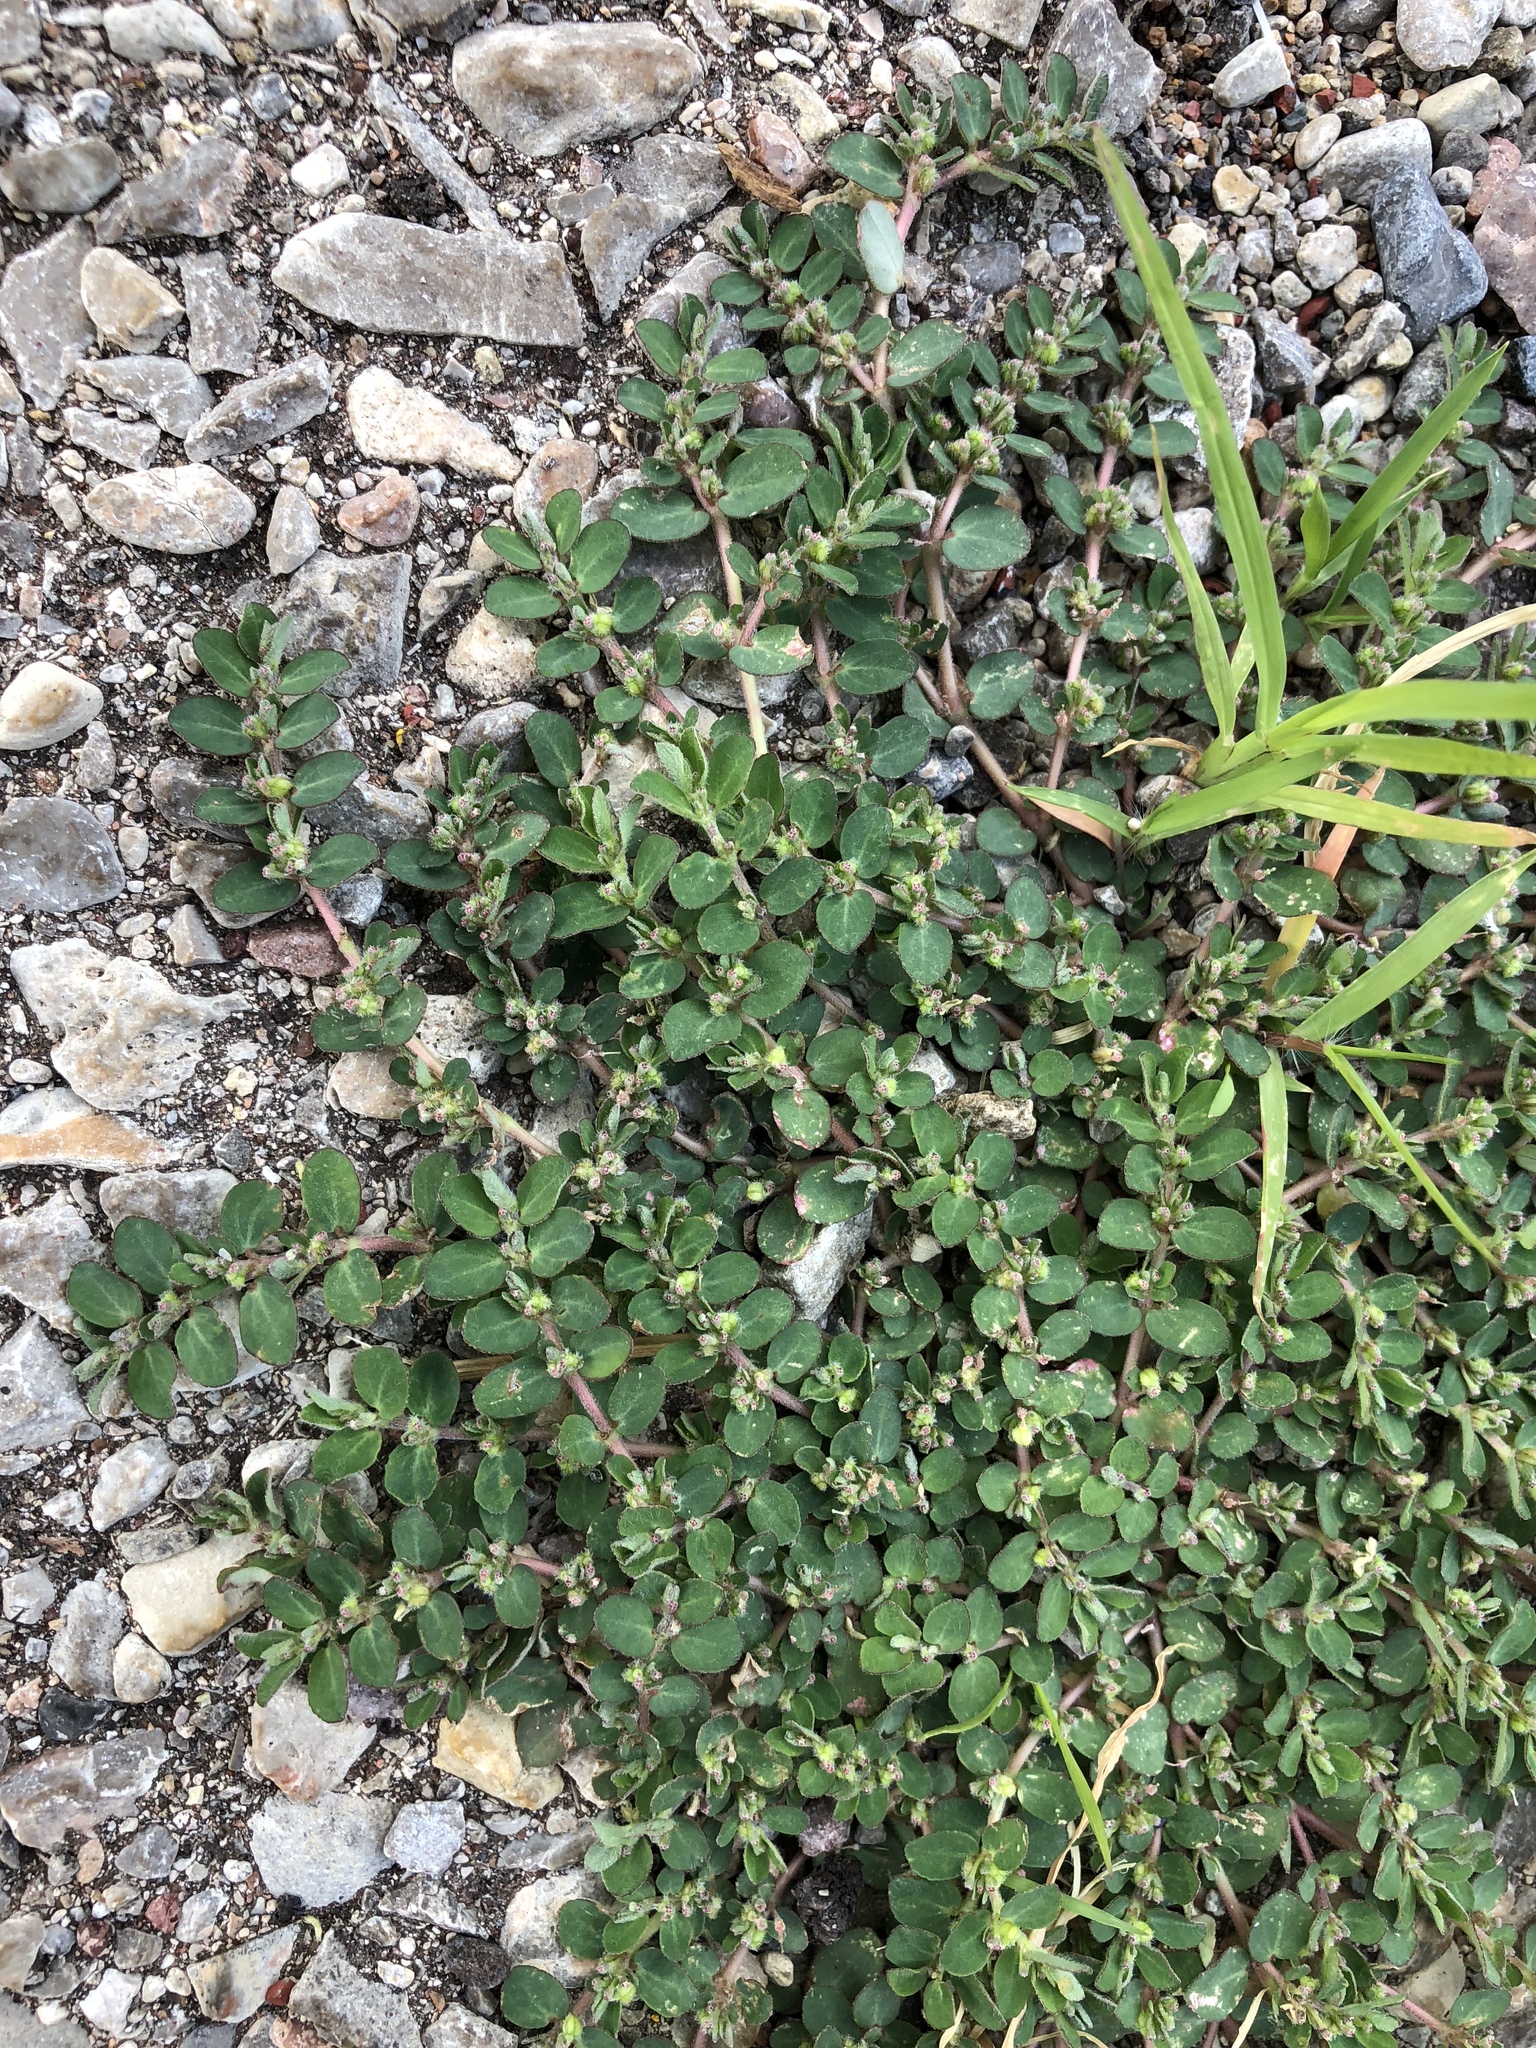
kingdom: Plantae
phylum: Tracheophyta
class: Magnoliopsida
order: Malpighiales
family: Euphorbiaceae
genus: Euphorbia
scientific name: Euphorbia prostrata
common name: Prostrate sandmat
